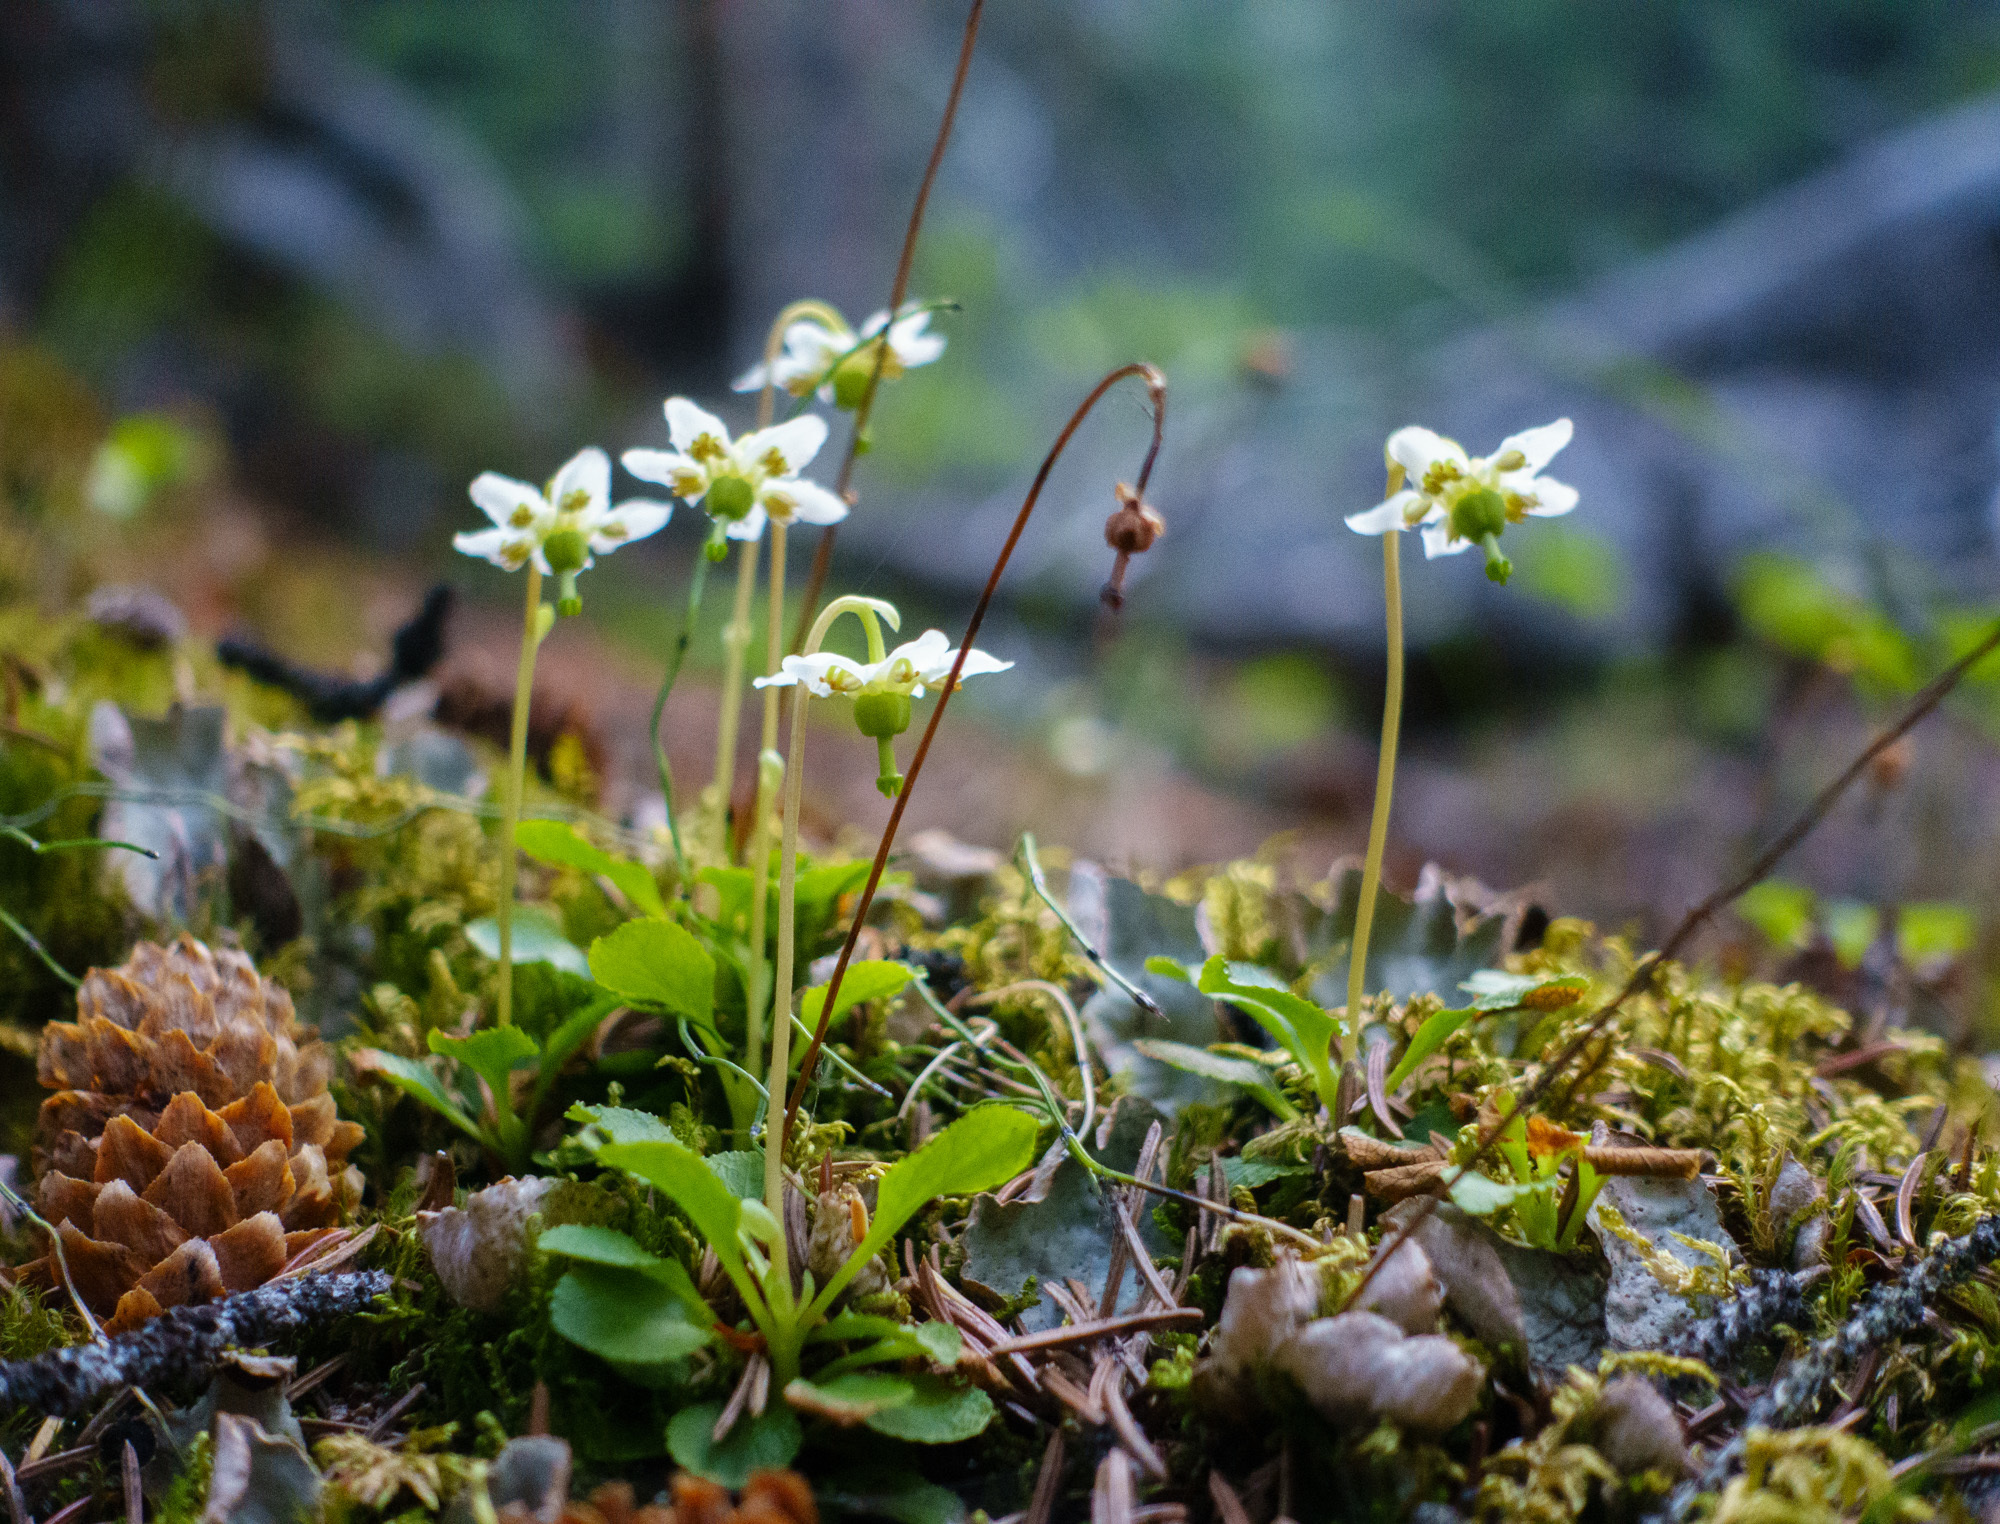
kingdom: Plantae
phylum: Tracheophyta
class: Magnoliopsida
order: Ericales
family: Ericaceae
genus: Moneses
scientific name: Moneses uniflora
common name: One-flowered wintergreen
